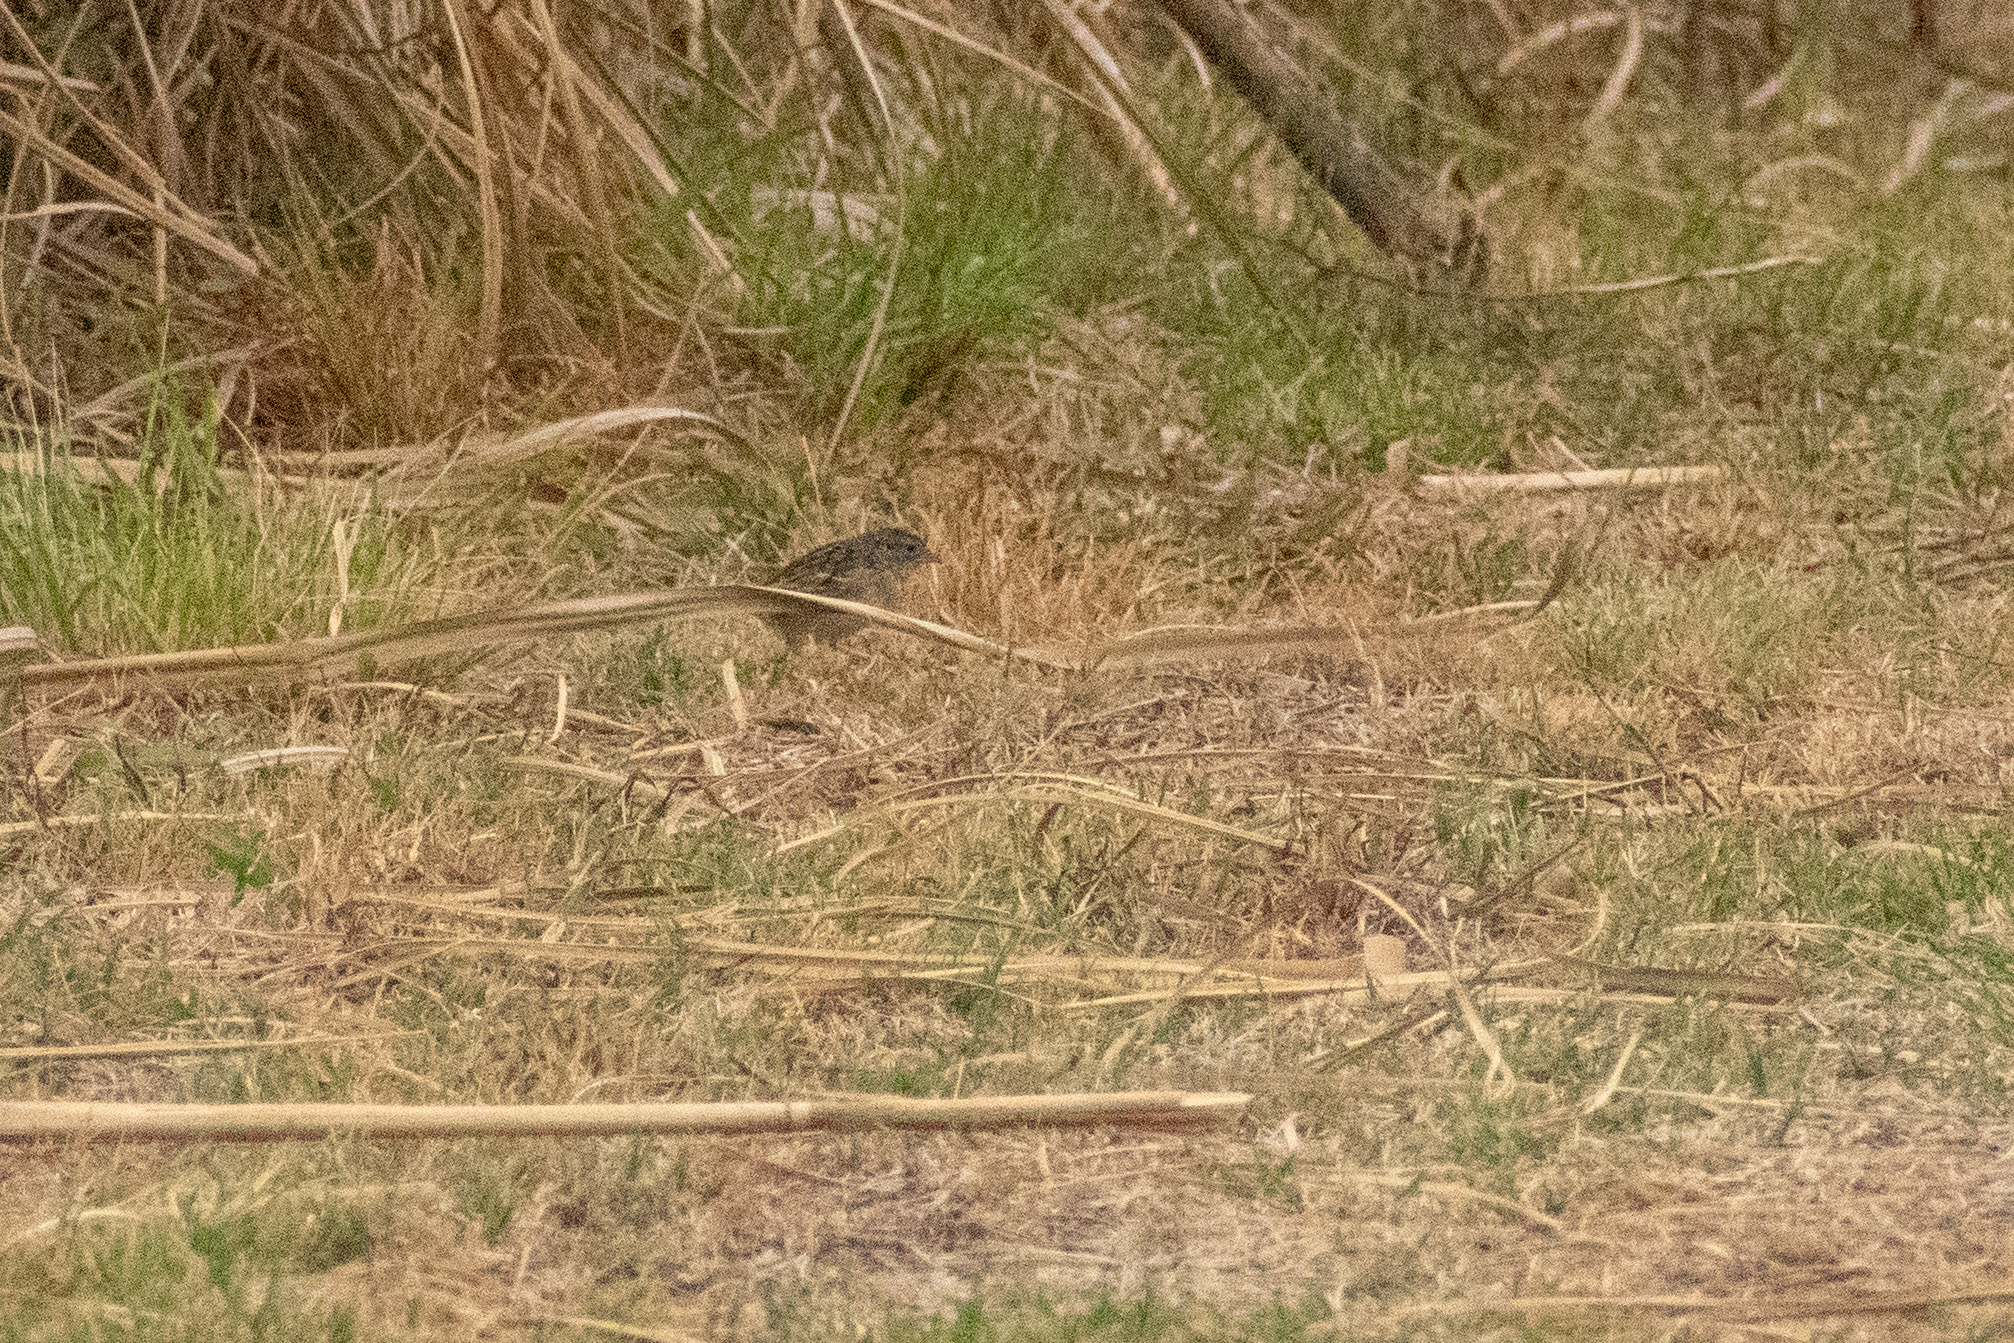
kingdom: Animalia
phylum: Chordata
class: Aves
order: Passeriformes
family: Passerellidae
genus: Ammodramus
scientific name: Ammodramus humeralis
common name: Grassland sparrow
